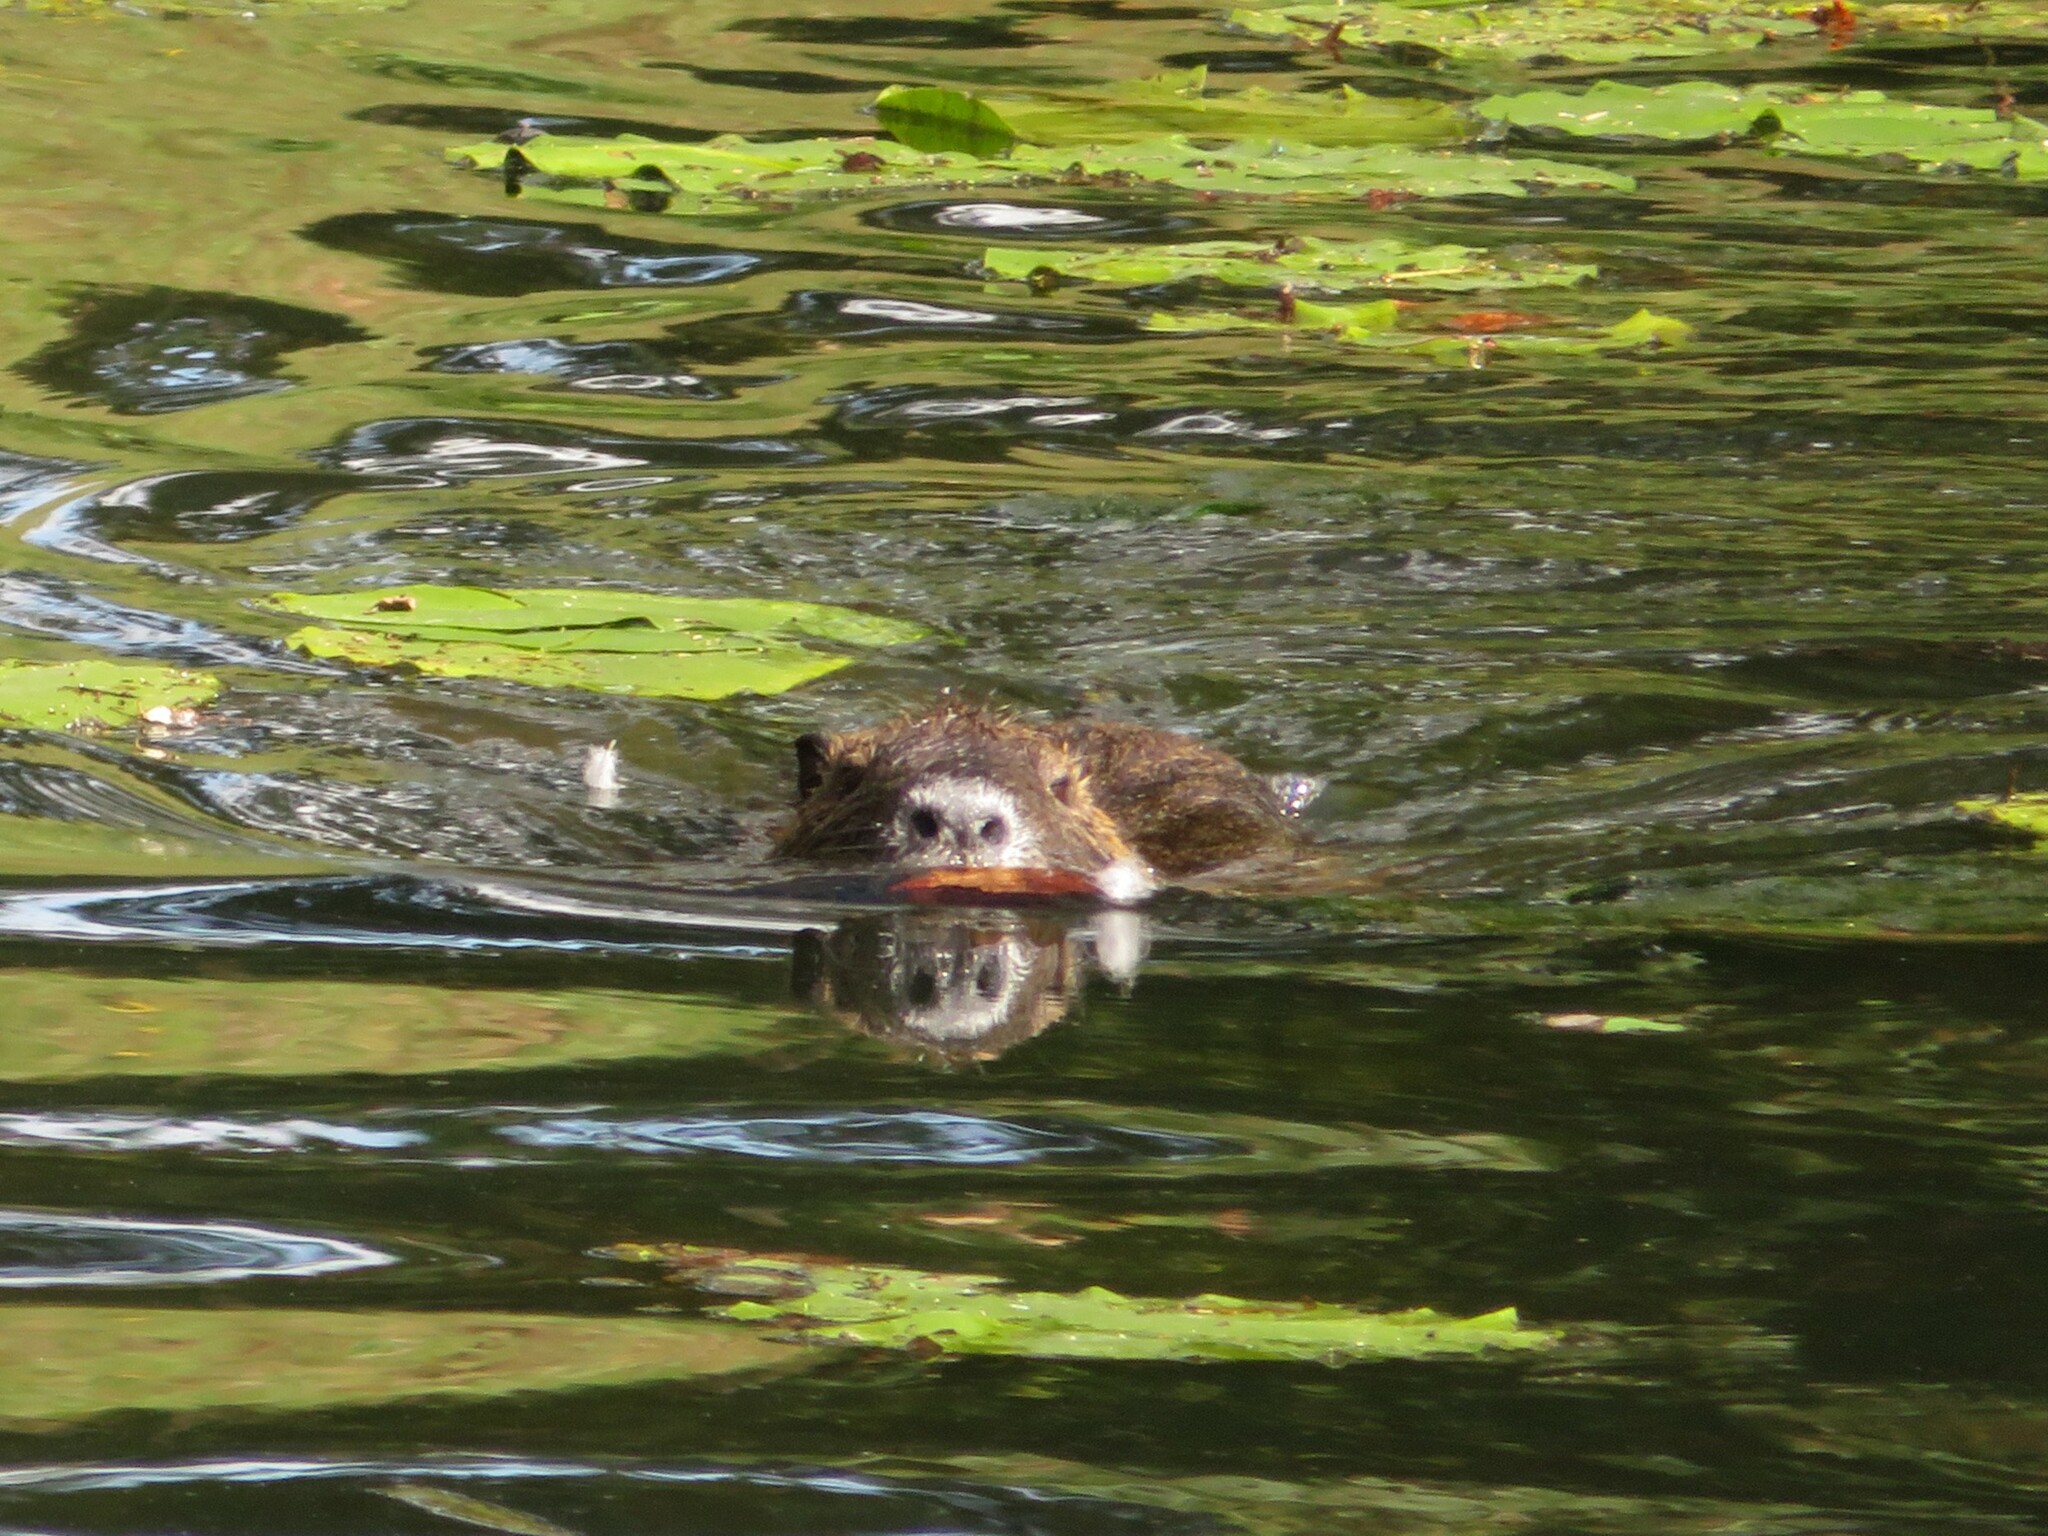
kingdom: Animalia
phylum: Chordata
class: Mammalia
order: Rodentia
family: Myocastoridae
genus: Myocastor
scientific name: Myocastor coypus
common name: Coypu
